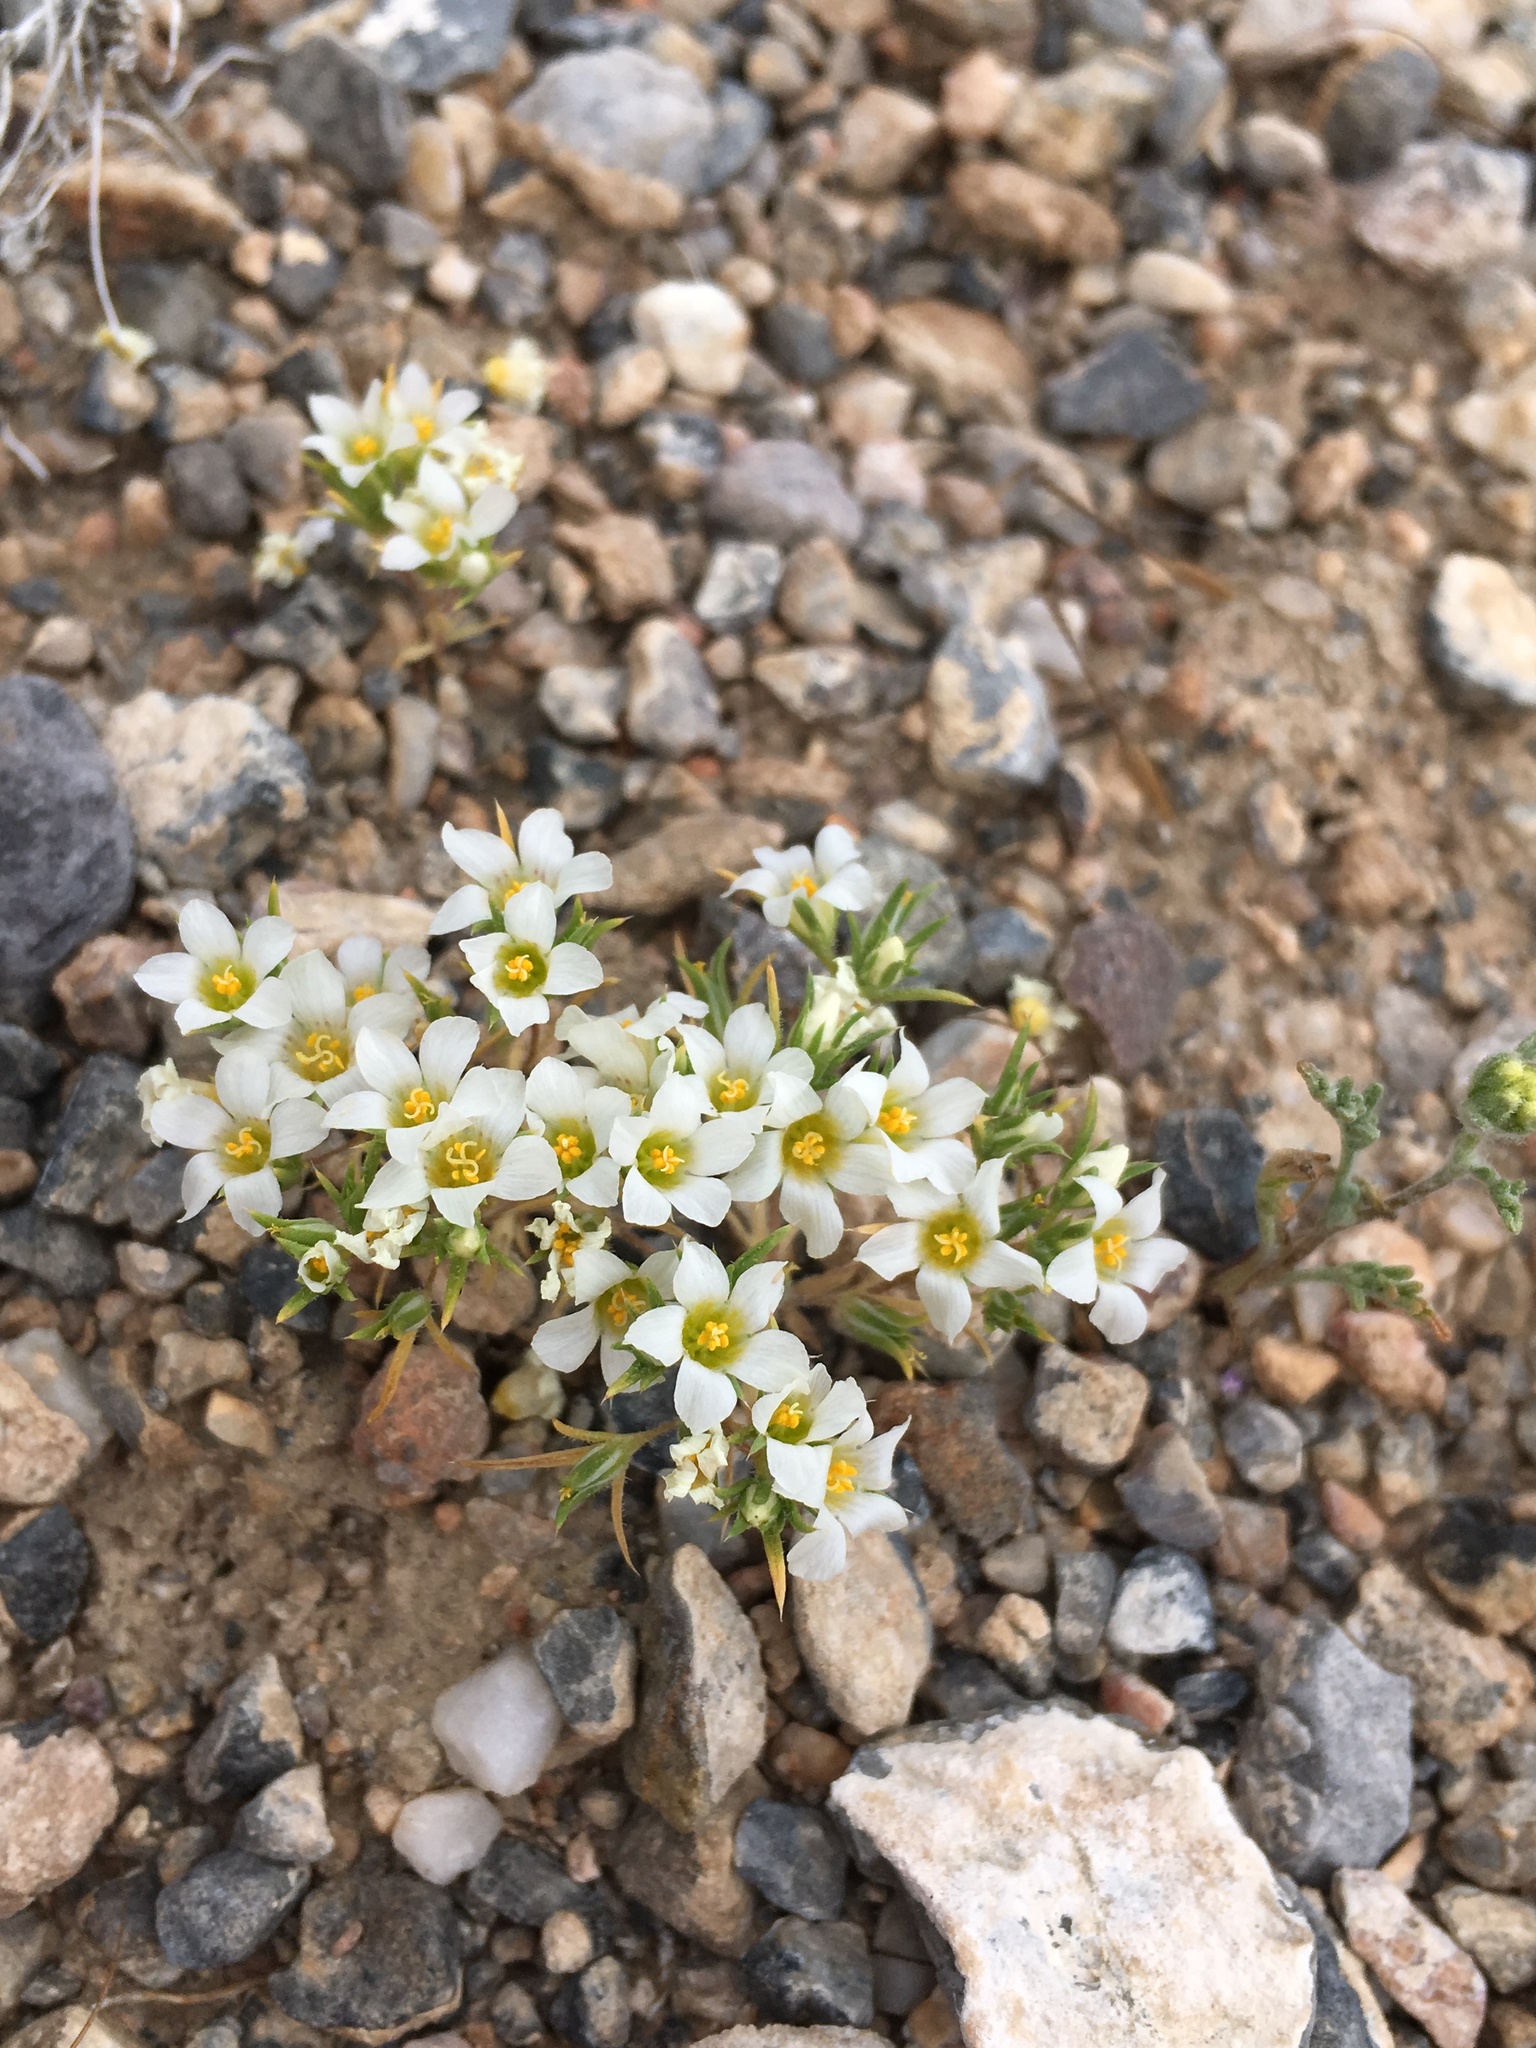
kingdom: Plantae
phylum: Tracheophyta
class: Magnoliopsida
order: Ericales
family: Polemoniaceae
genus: Linanthus
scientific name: Linanthus demissus
